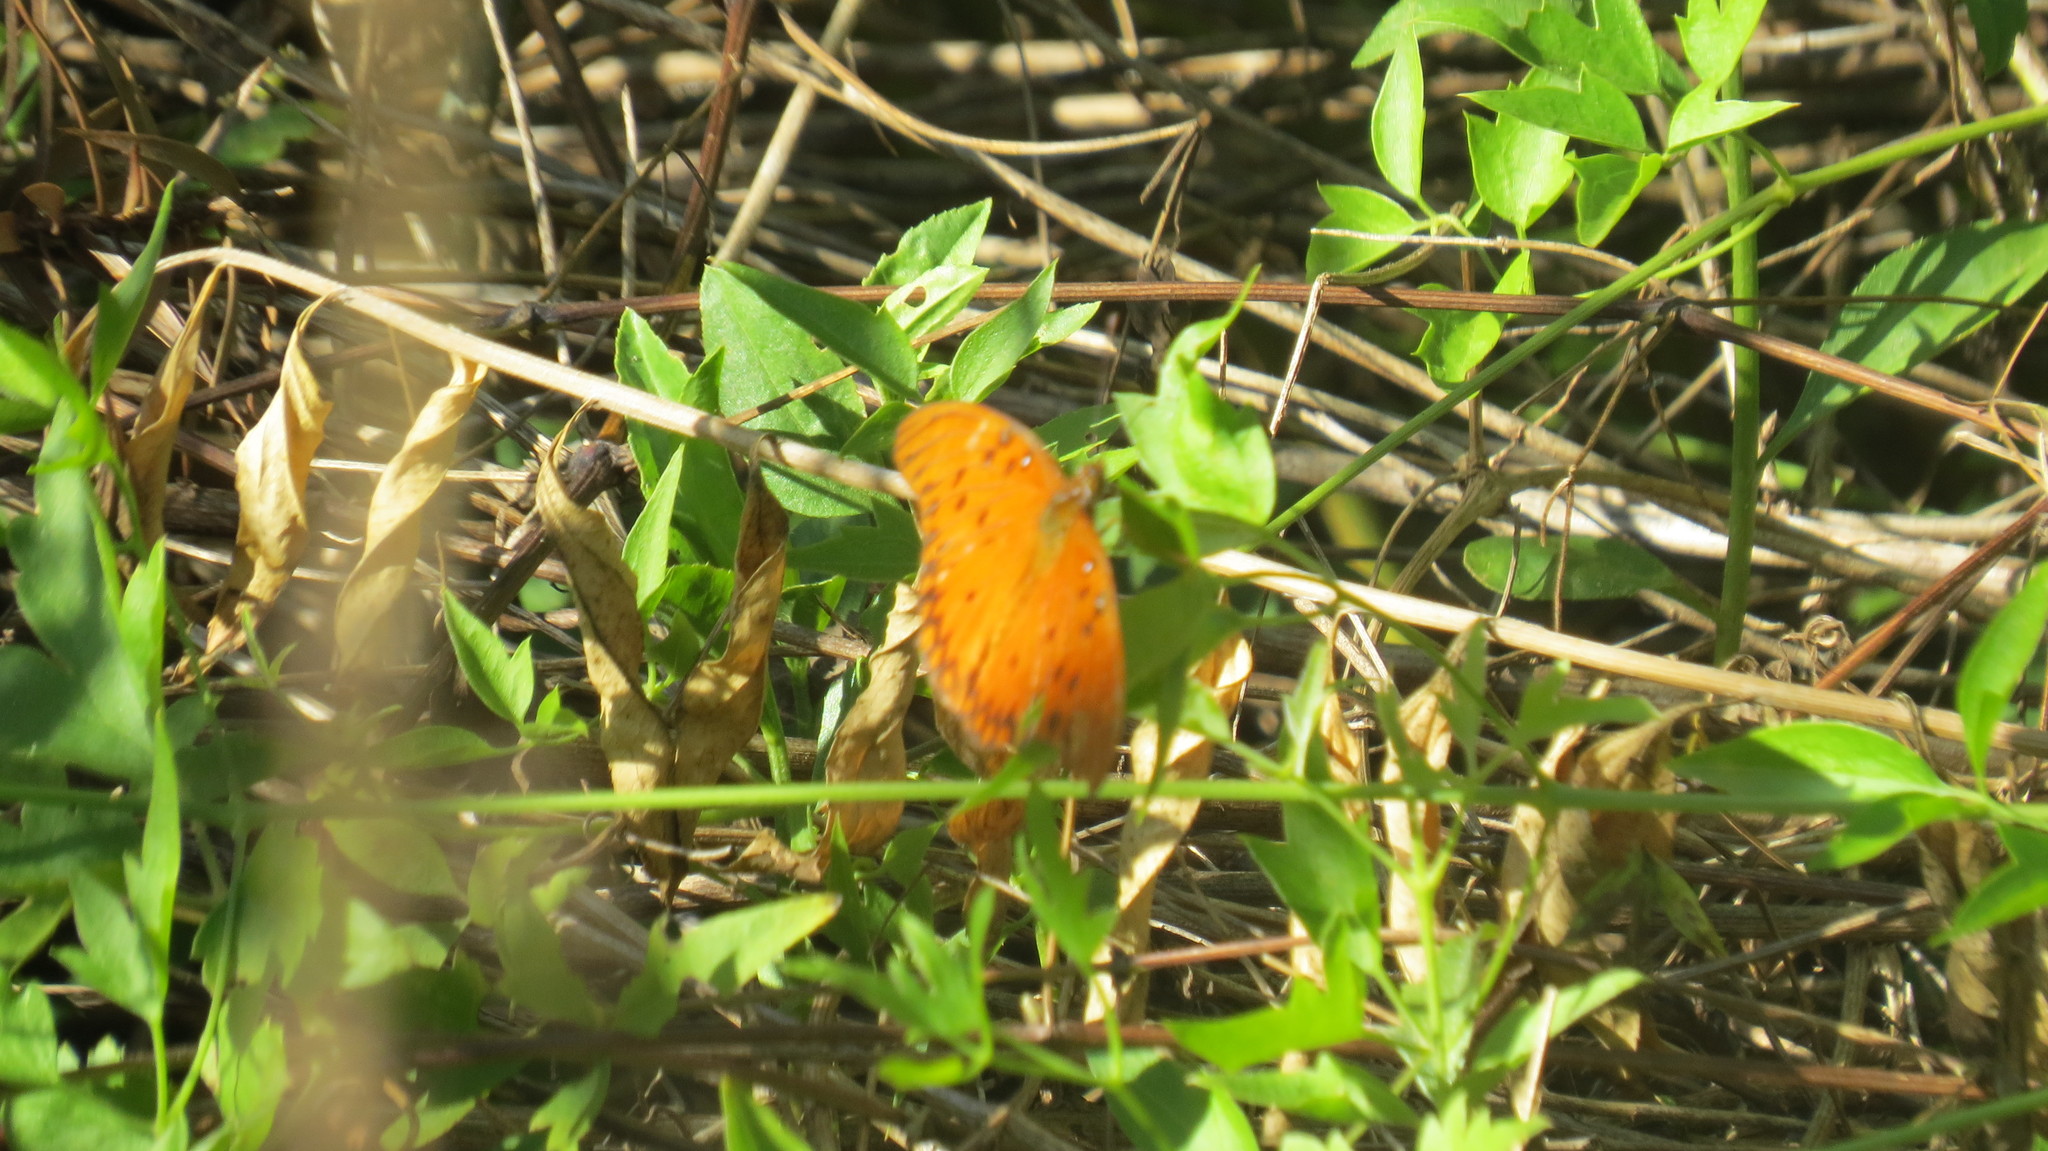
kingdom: Animalia
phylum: Arthropoda
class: Insecta
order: Lepidoptera
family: Nymphalidae
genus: Dione
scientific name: Dione vanillae
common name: Gulf fritillary
